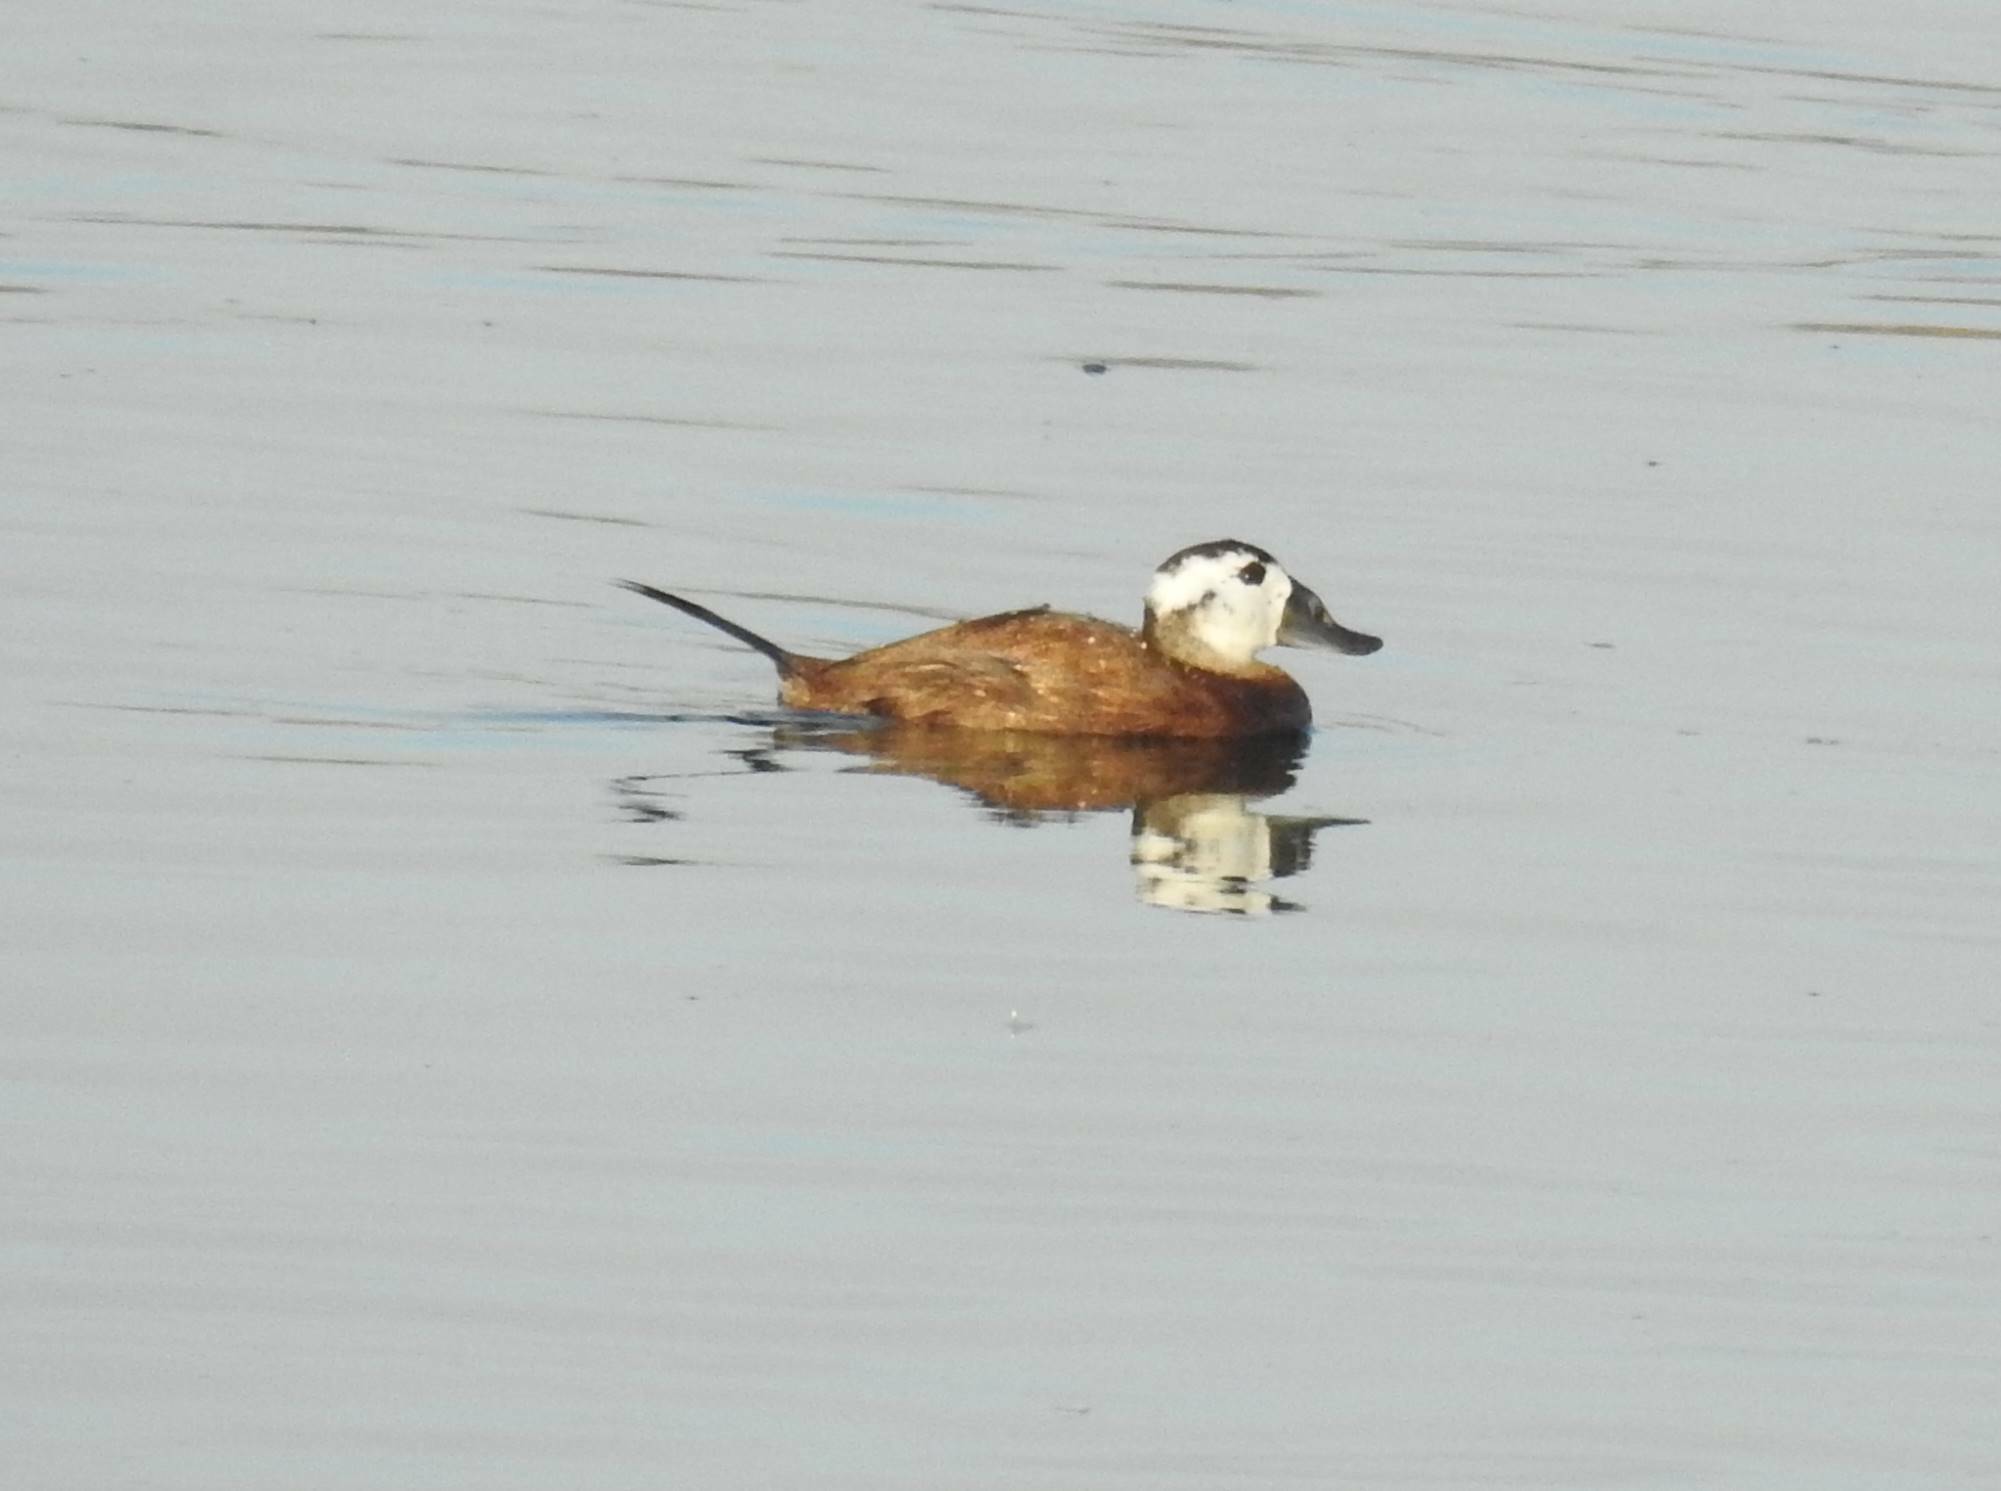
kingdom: Animalia
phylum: Chordata
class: Aves
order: Anseriformes
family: Anatidae
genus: Oxyura
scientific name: Oxyura leucocephala
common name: White-headed duck
